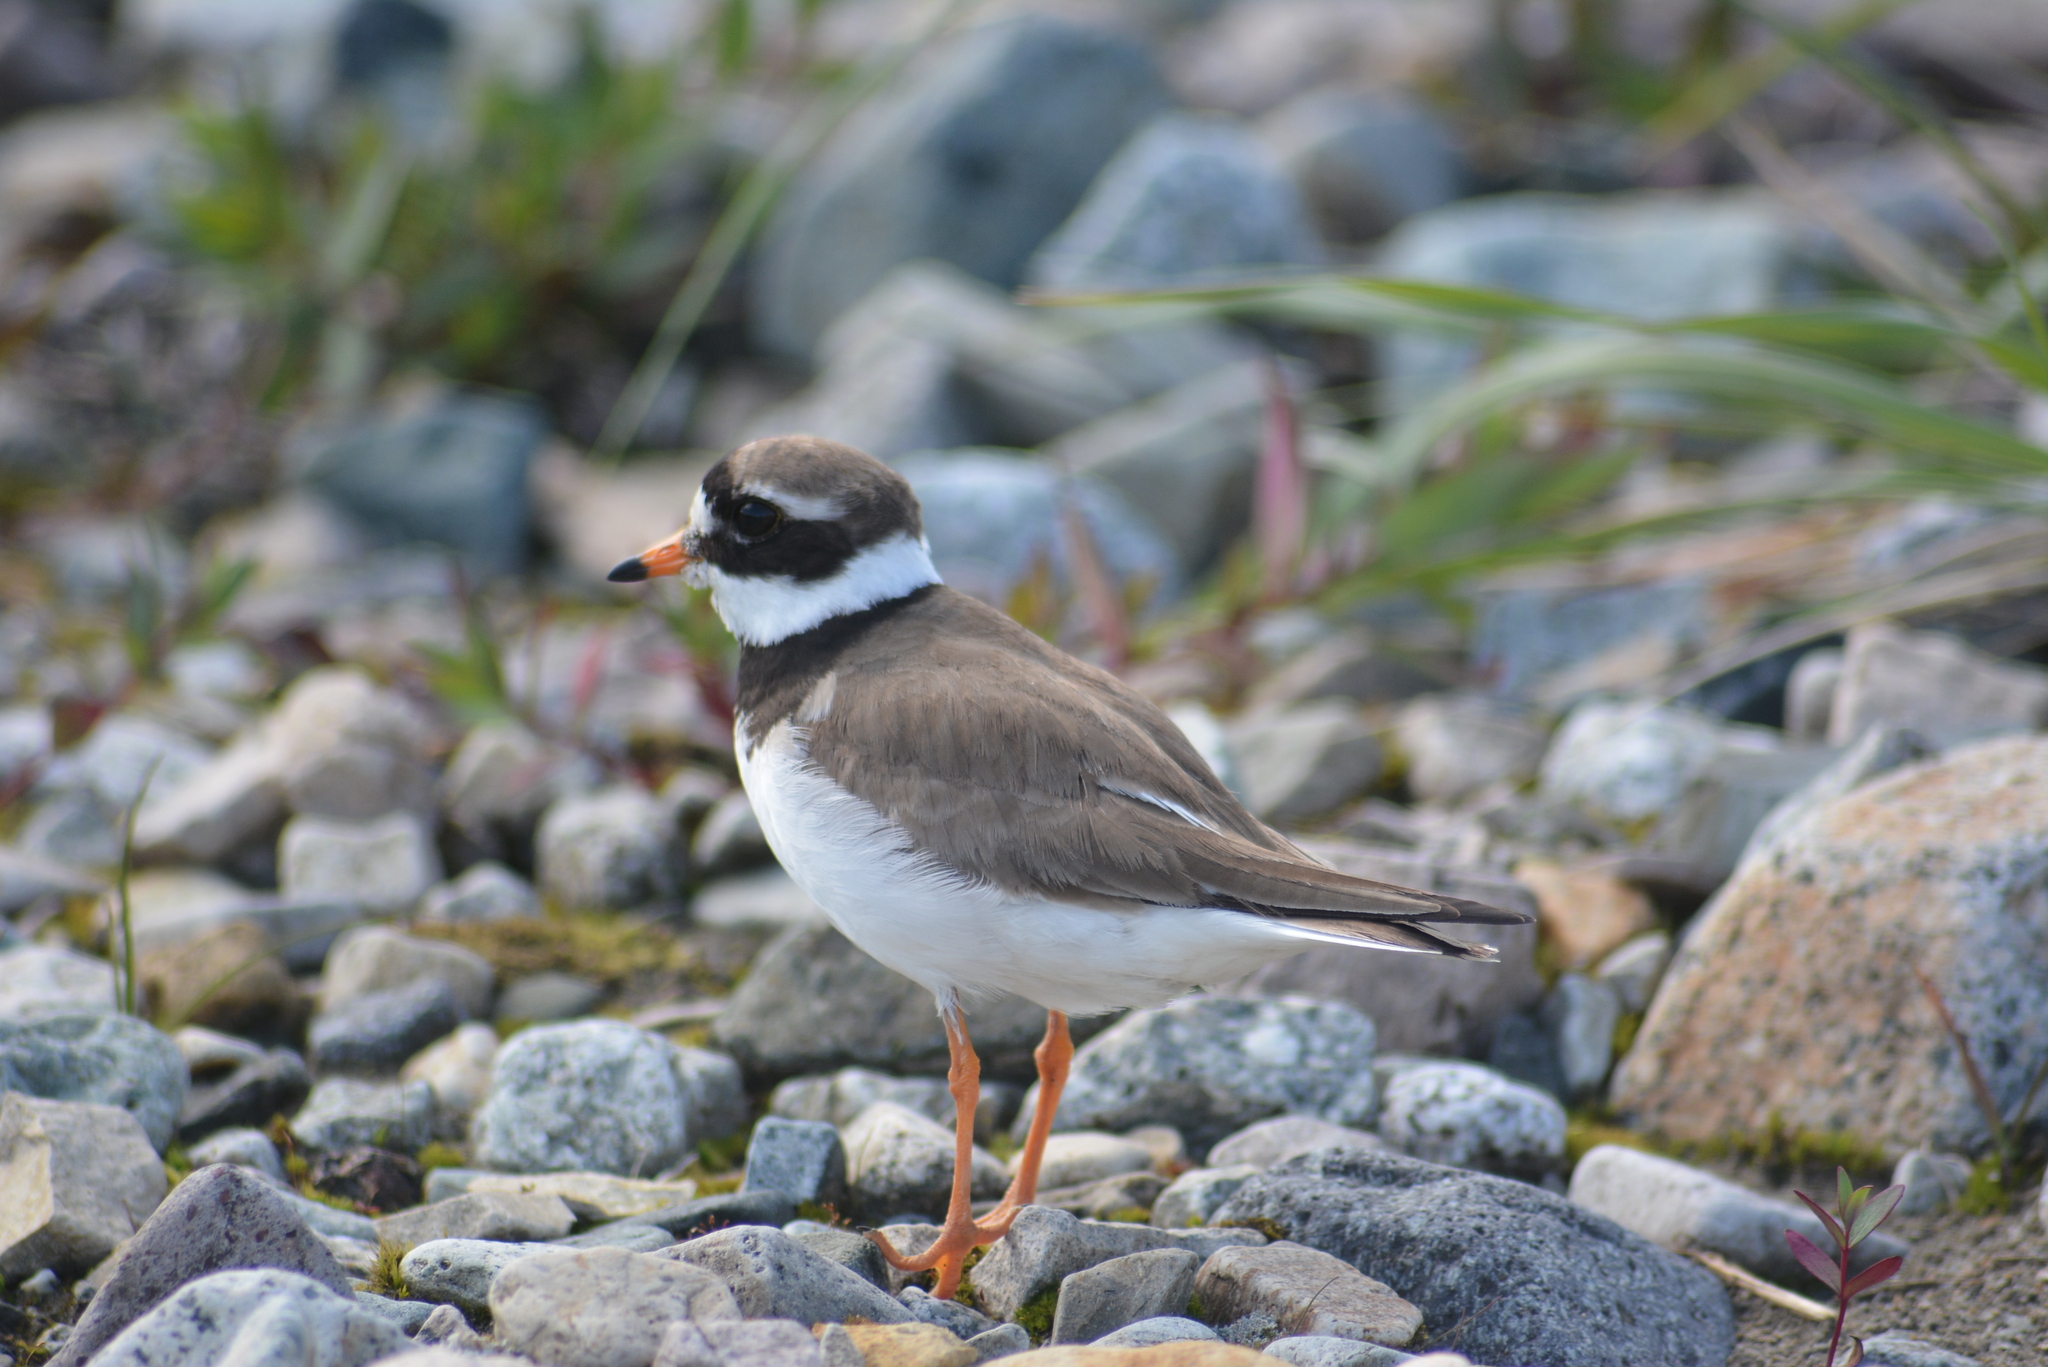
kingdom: Animalia
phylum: Chordata
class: Aves
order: Charadriiformes
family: Charadriidae
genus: Charadrius
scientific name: Charadrius hiaticula
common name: Common ringed plover
